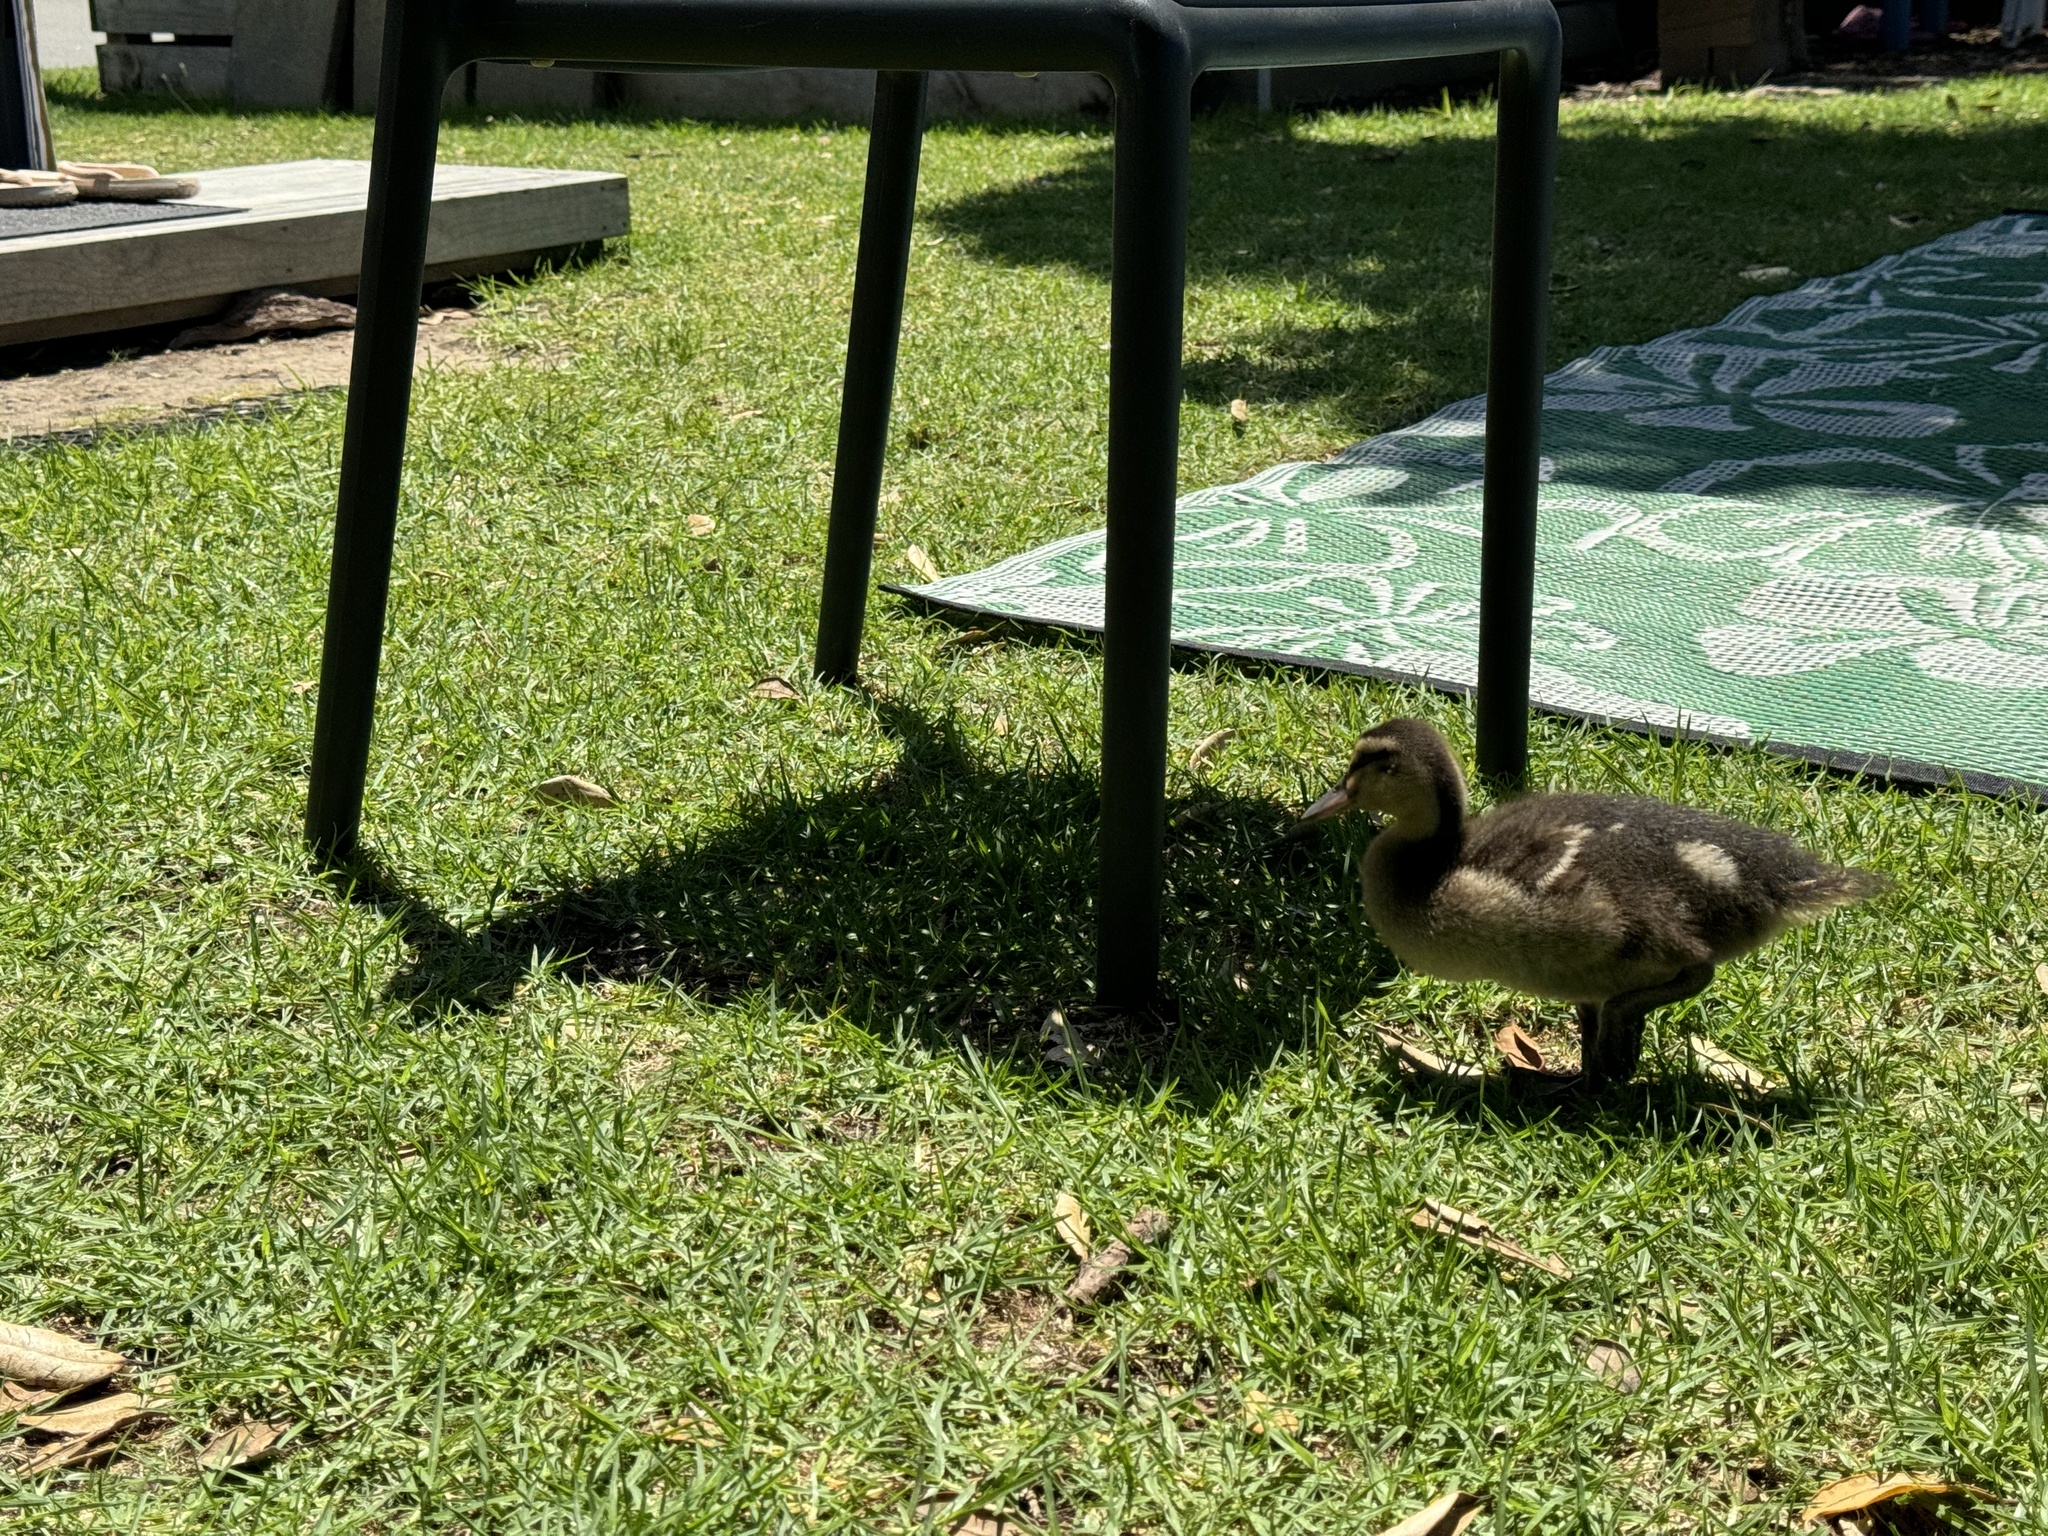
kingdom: Animalia
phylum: Chordata
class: Aves
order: Anseriformes
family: Anatidae
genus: Anas
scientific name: Anas
